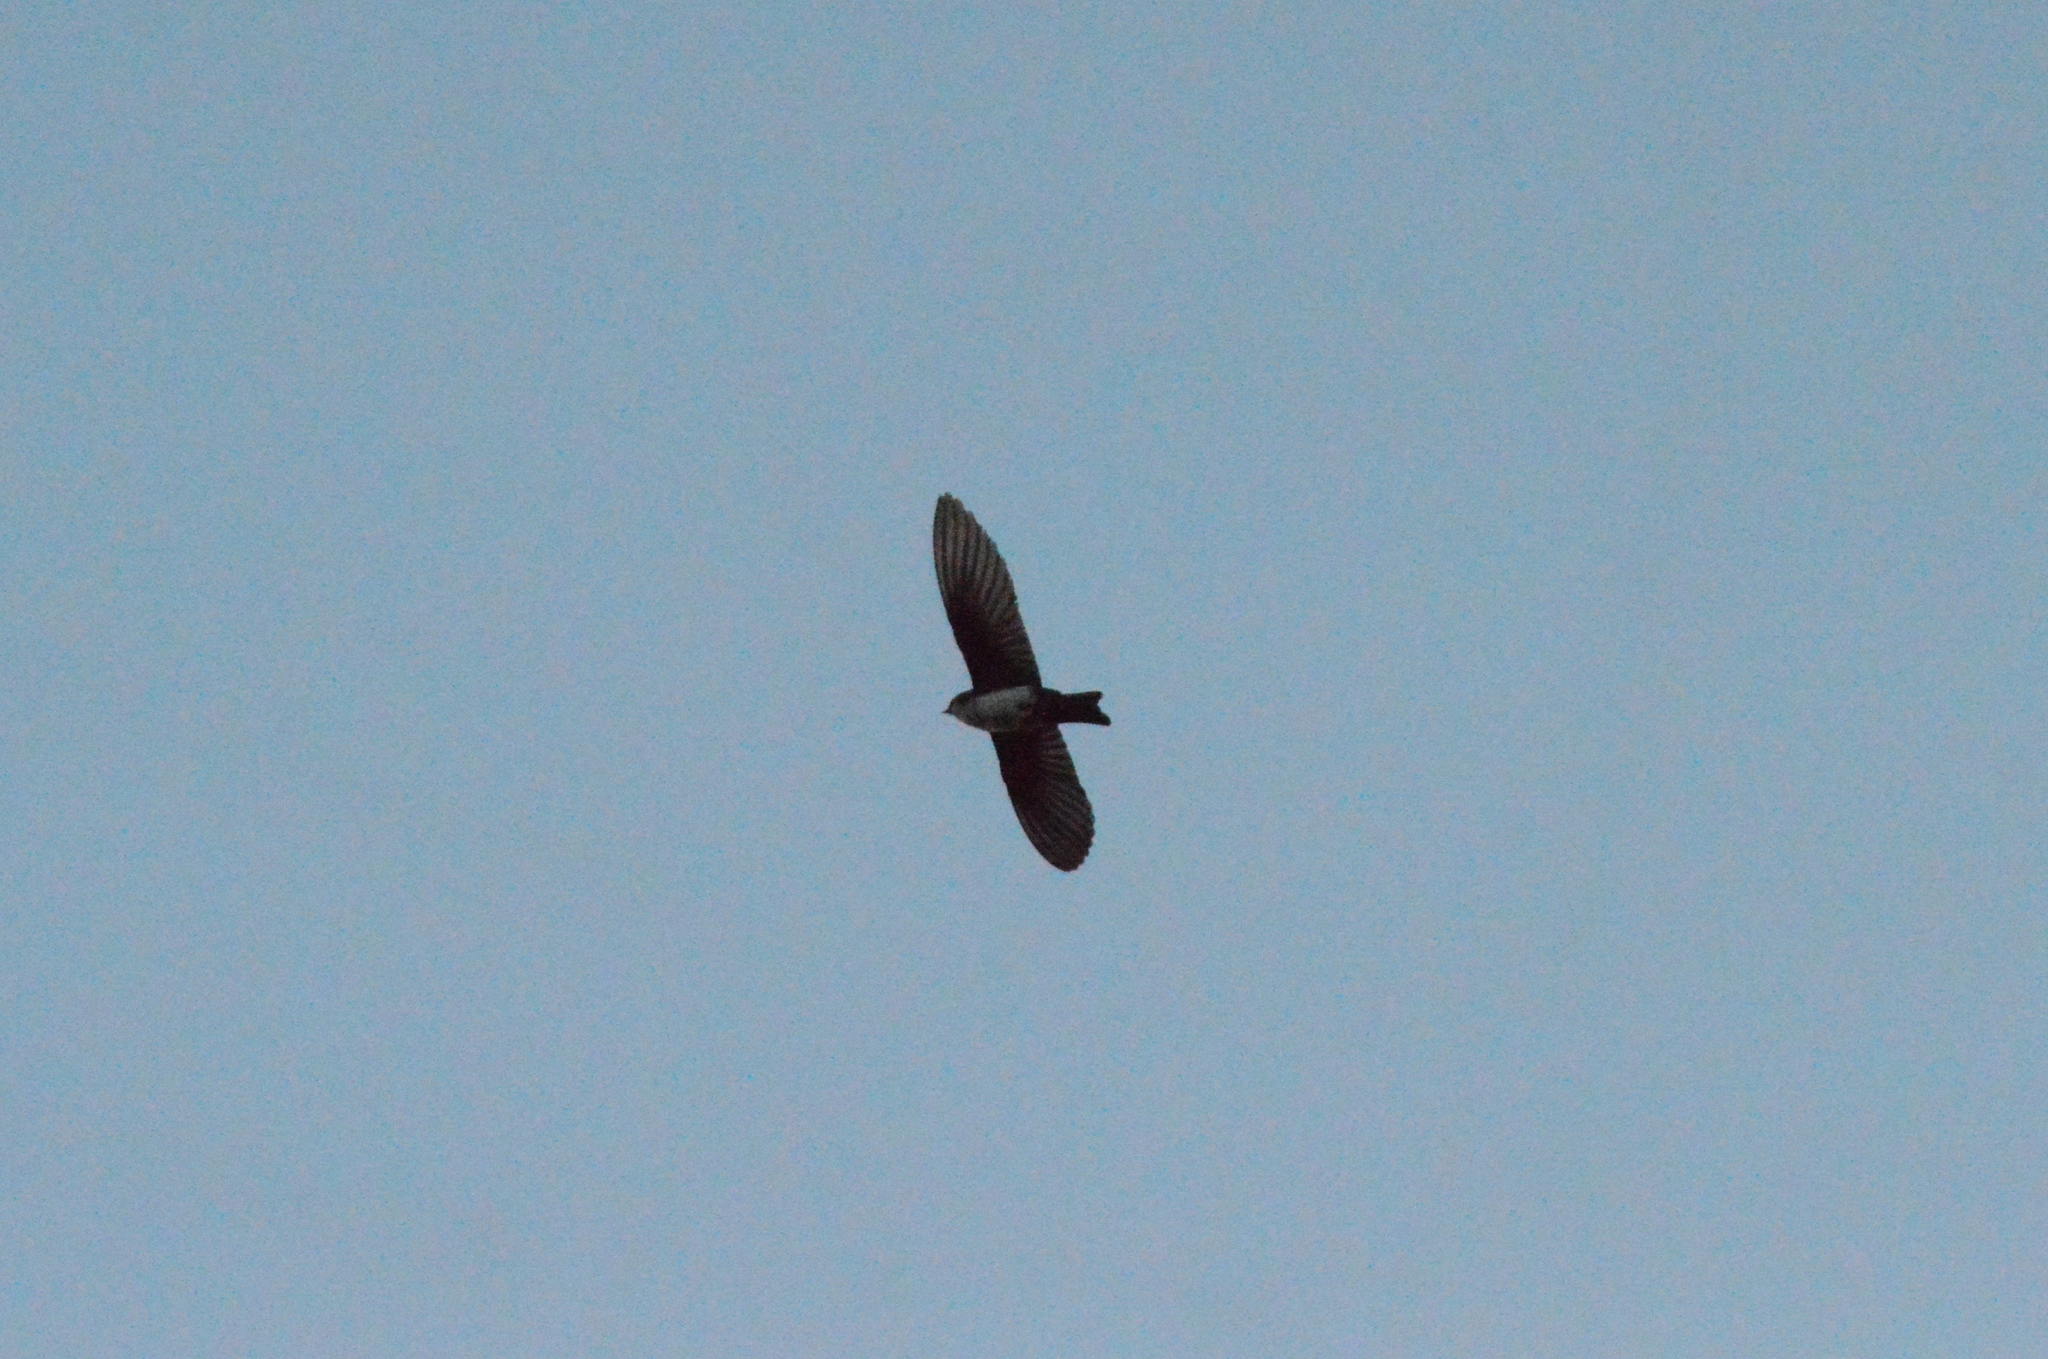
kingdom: Animalia
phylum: Chordata
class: Aves
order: Passeriformes
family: Hirundinidae
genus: Notiochelidon
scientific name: Notiochelidon cyanoleuca
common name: Blue-and-white swallow
